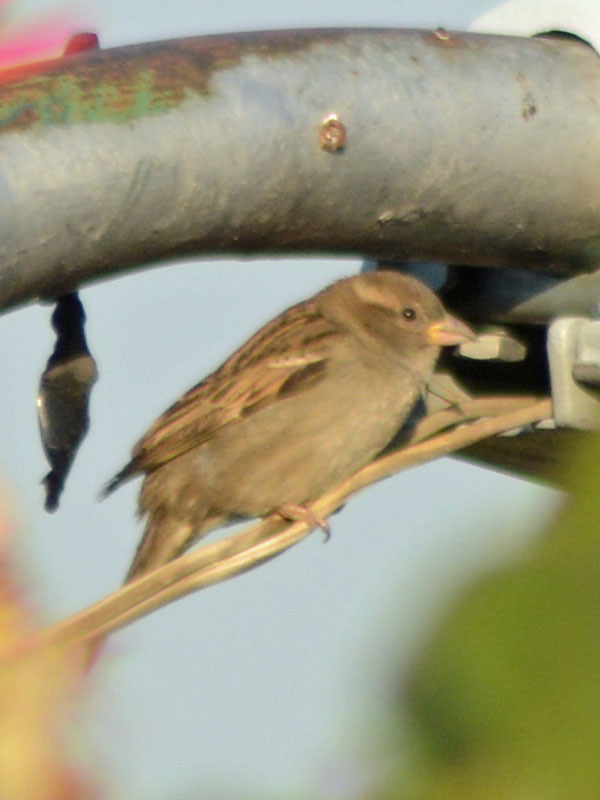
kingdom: Animalia
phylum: Chordata
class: Aves
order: Passeriformes
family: Passeridae
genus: Passer
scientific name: Passer domesticus
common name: House sparrow
